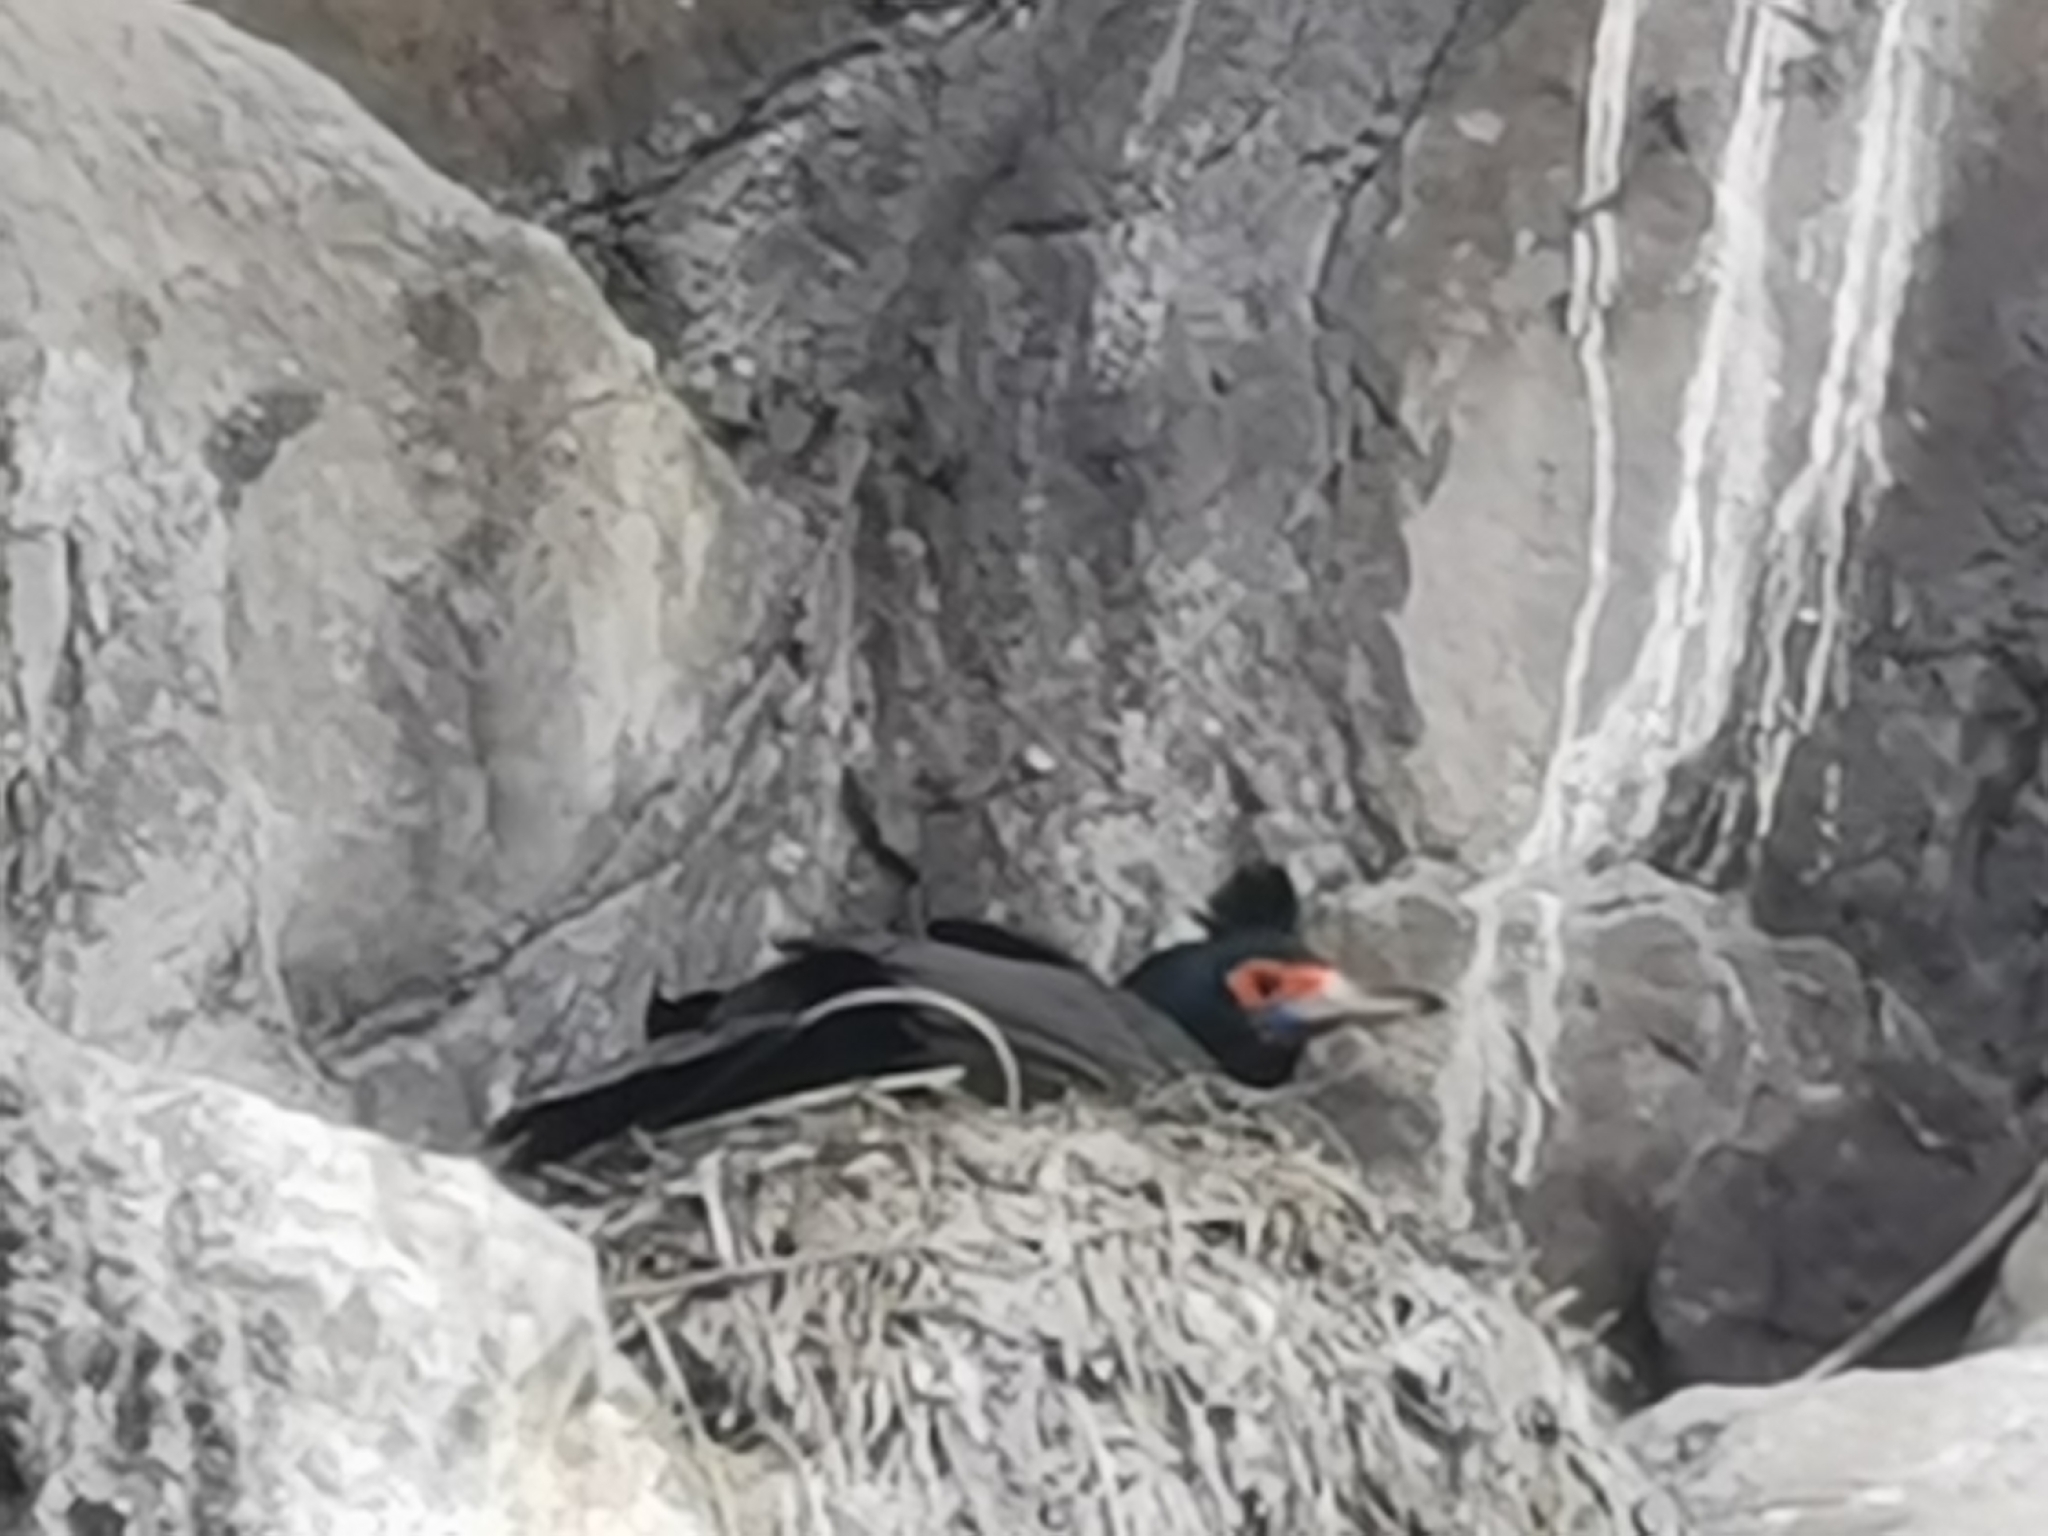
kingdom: Animalia
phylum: Chordata
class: Aves
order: Suliformes
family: Phalacrocoracidae
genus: Phalacrocorax
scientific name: Phalacrocorax urile
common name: Red-faced cormorant
